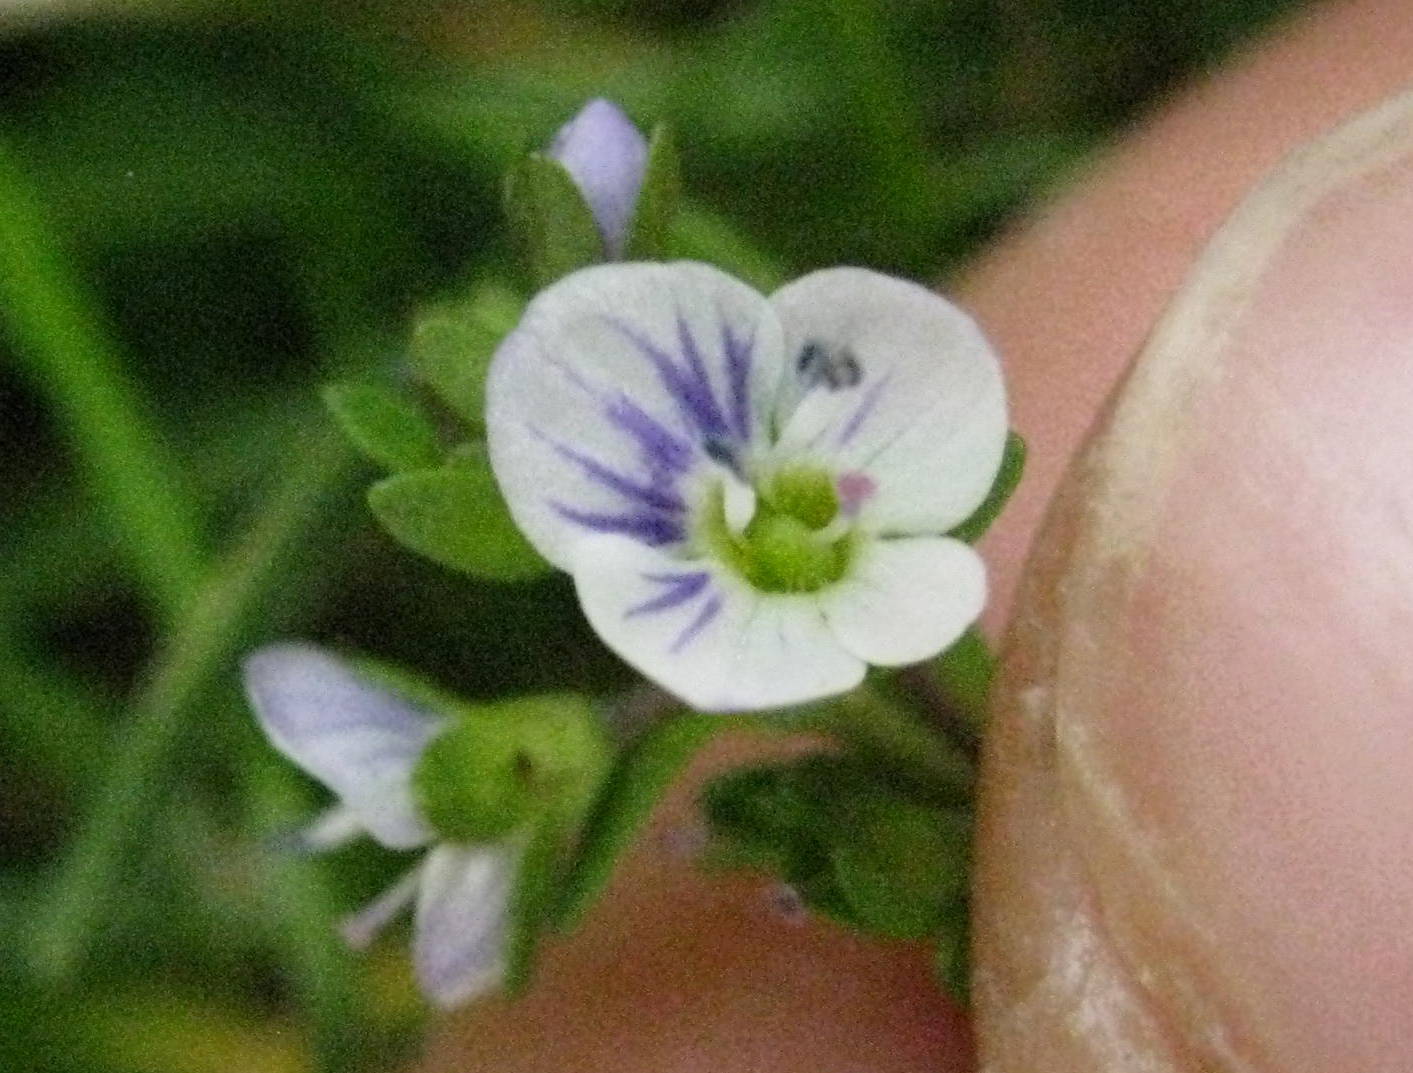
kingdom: Plantae
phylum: Tracheophyta
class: Magnoliopsida
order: Lamiales
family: Plantaginaceae
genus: Veronica
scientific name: Veronica serpyllifolia
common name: Thyme-leaved speedwell
